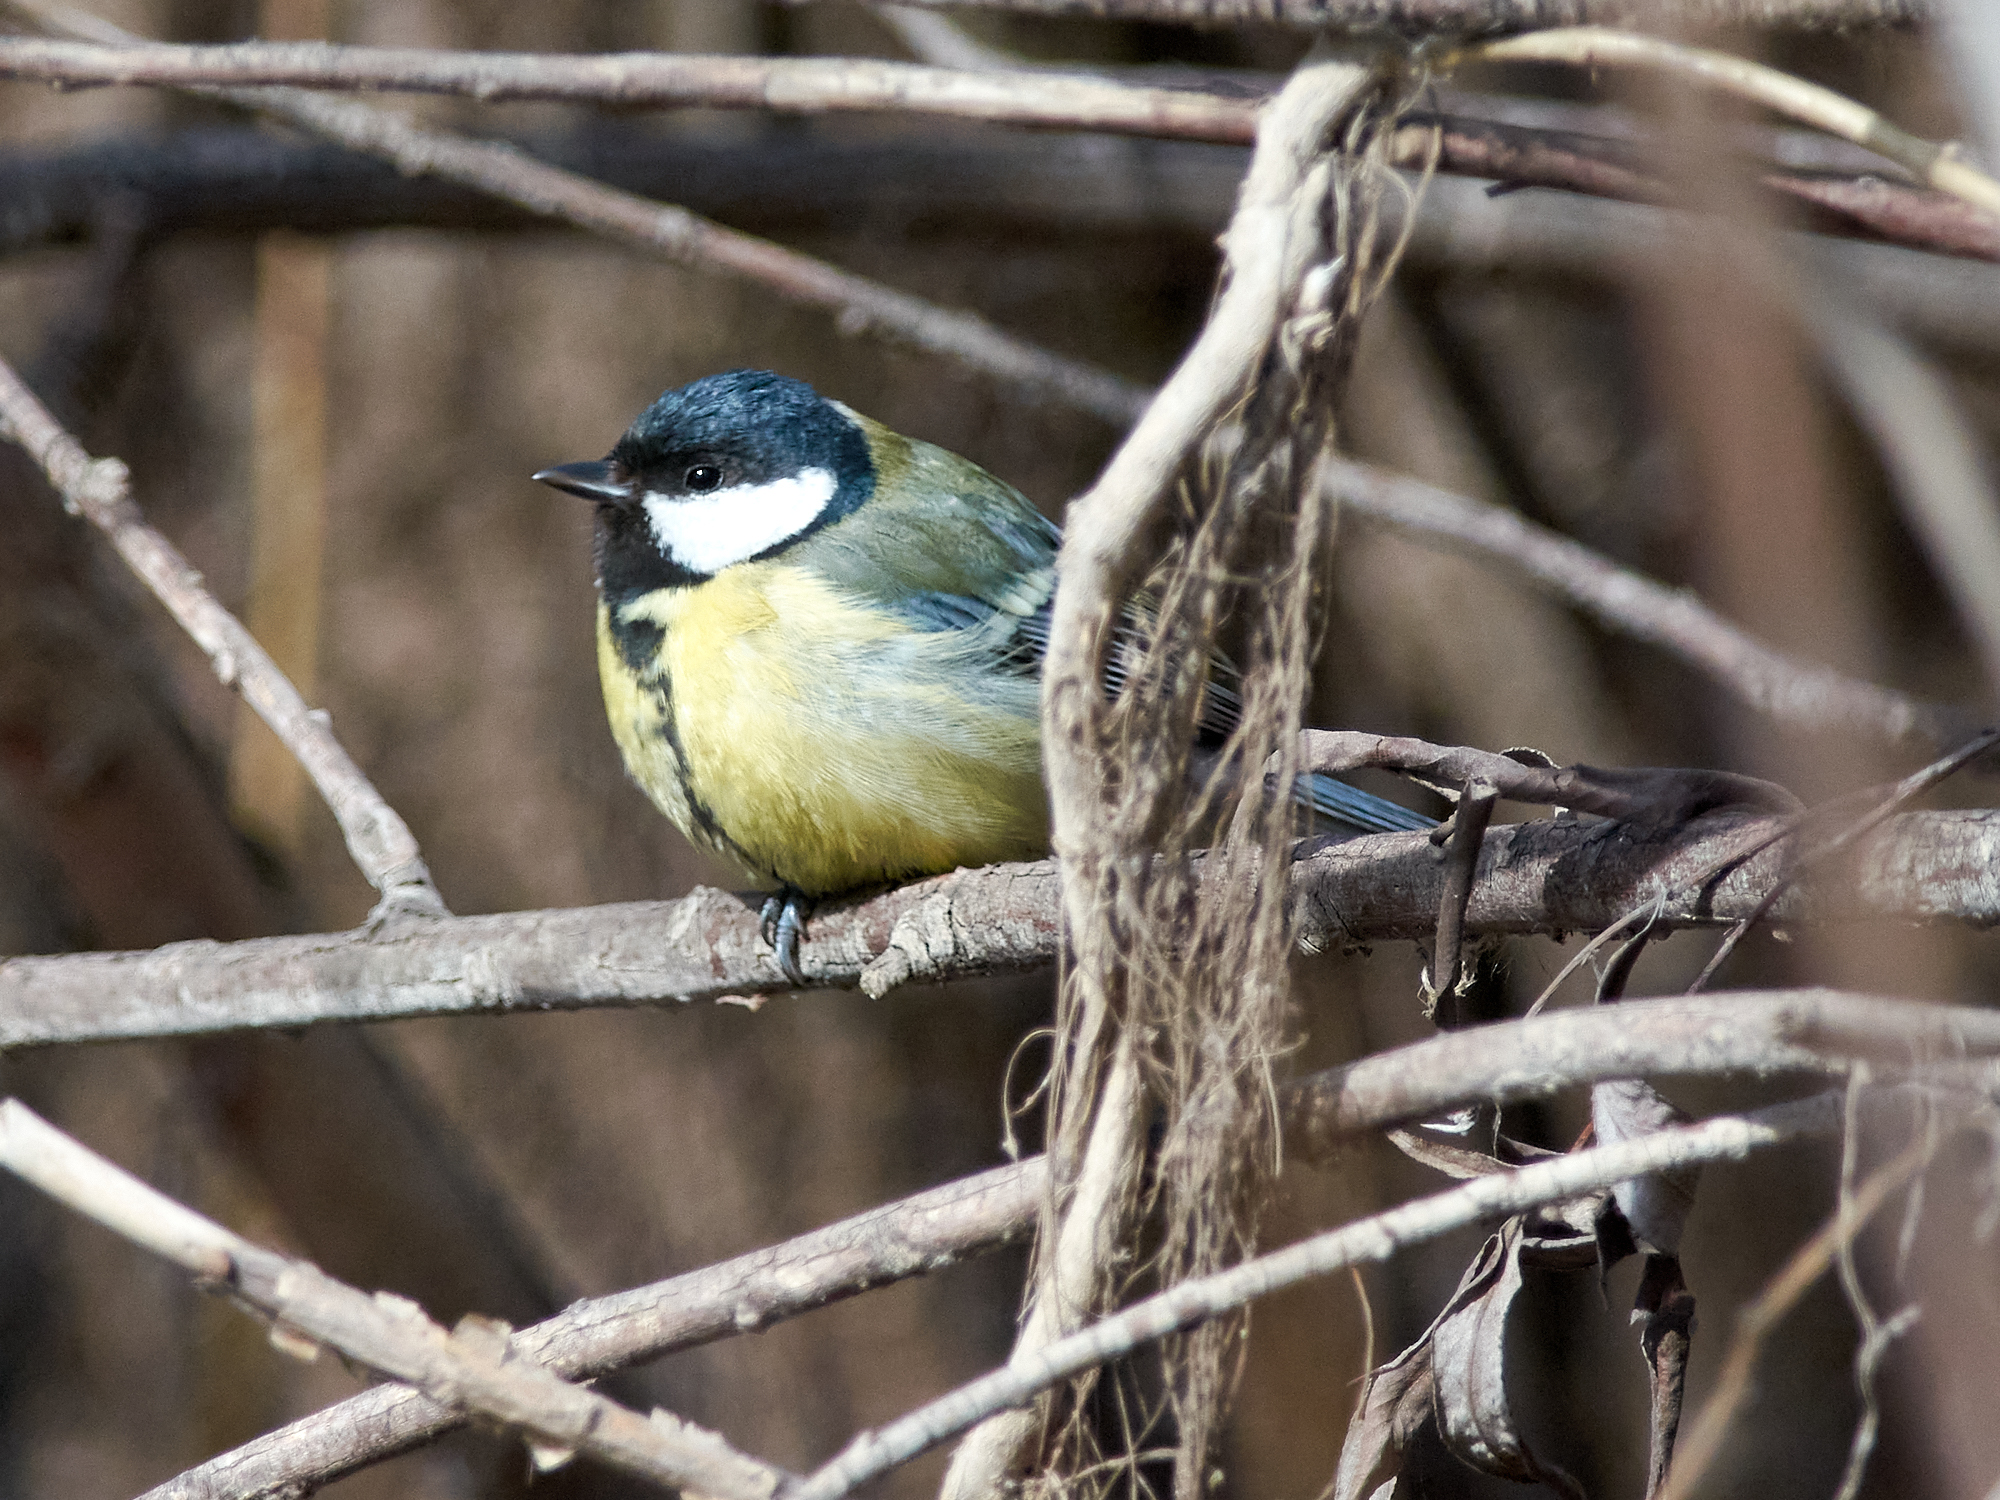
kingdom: Animalia
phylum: Chordata
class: Aves
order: Passeriformes
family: Paridae
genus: Parus
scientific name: Parus major
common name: Great tit
